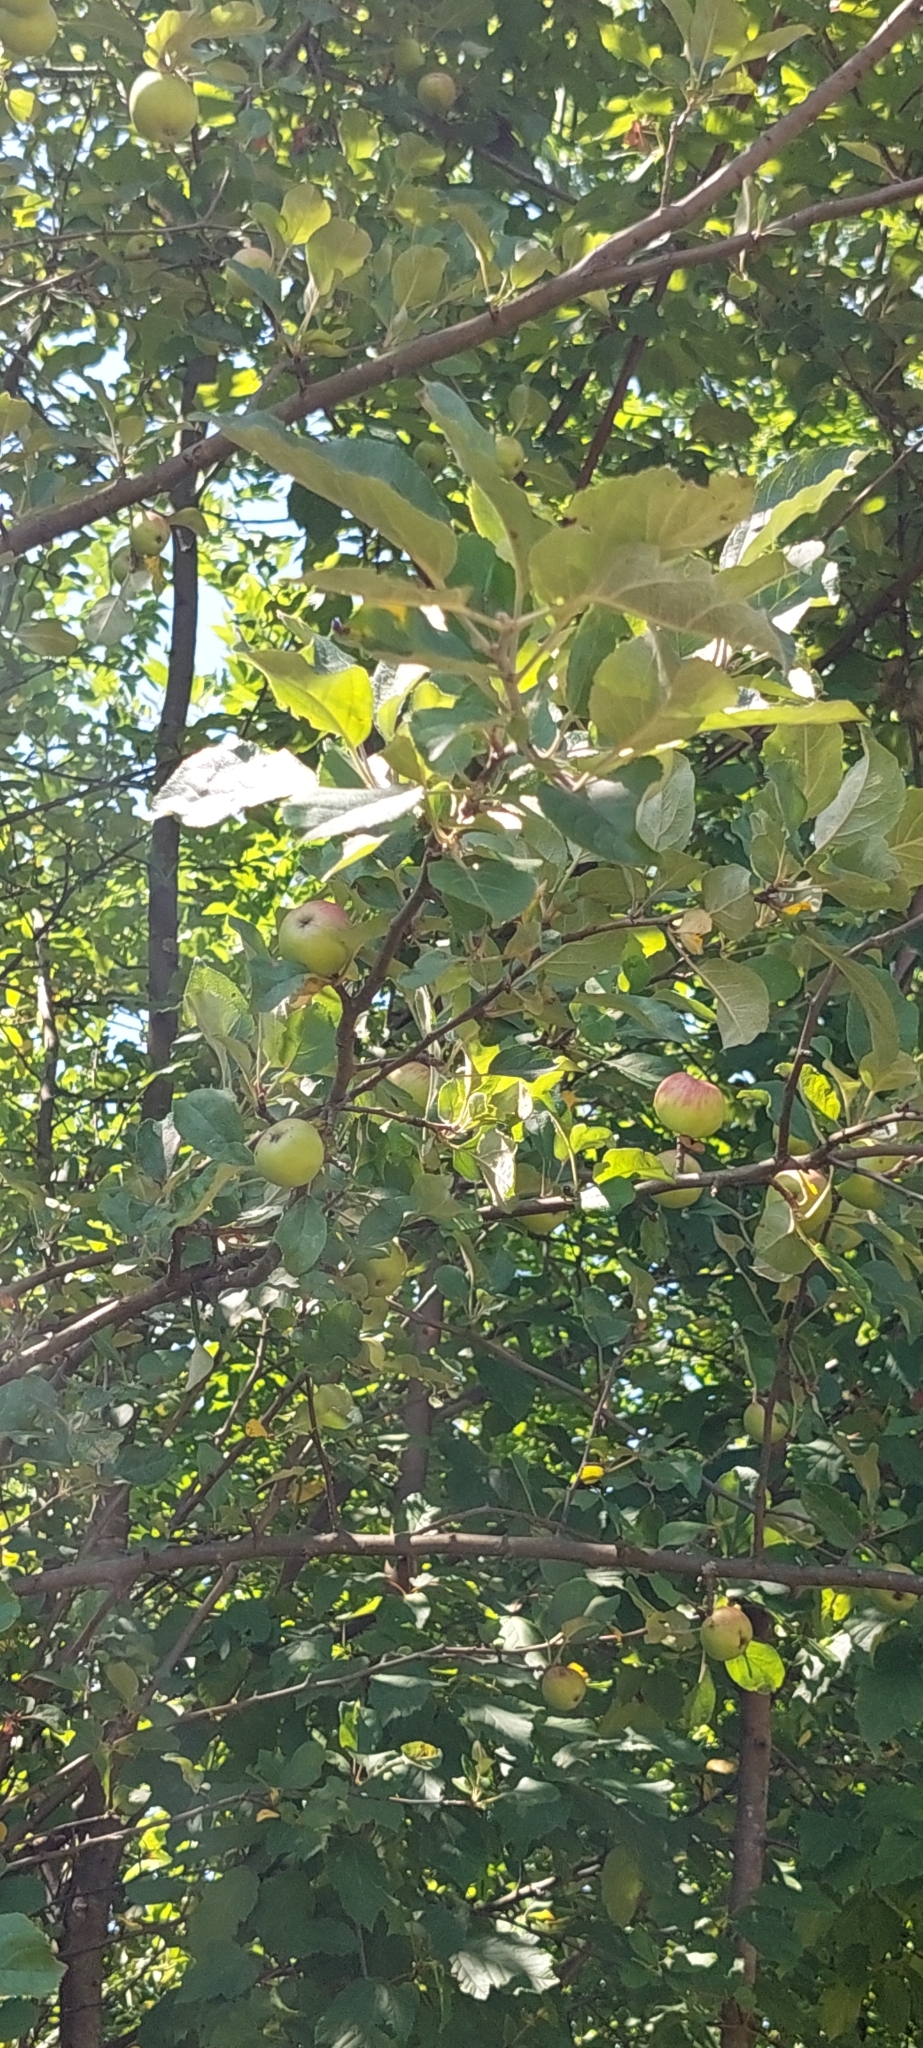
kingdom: Plantae
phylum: Tracheophyta
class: Magnoliopsida
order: Rosales
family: Rosaceae
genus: Malus
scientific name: Malus domestica
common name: Apple
